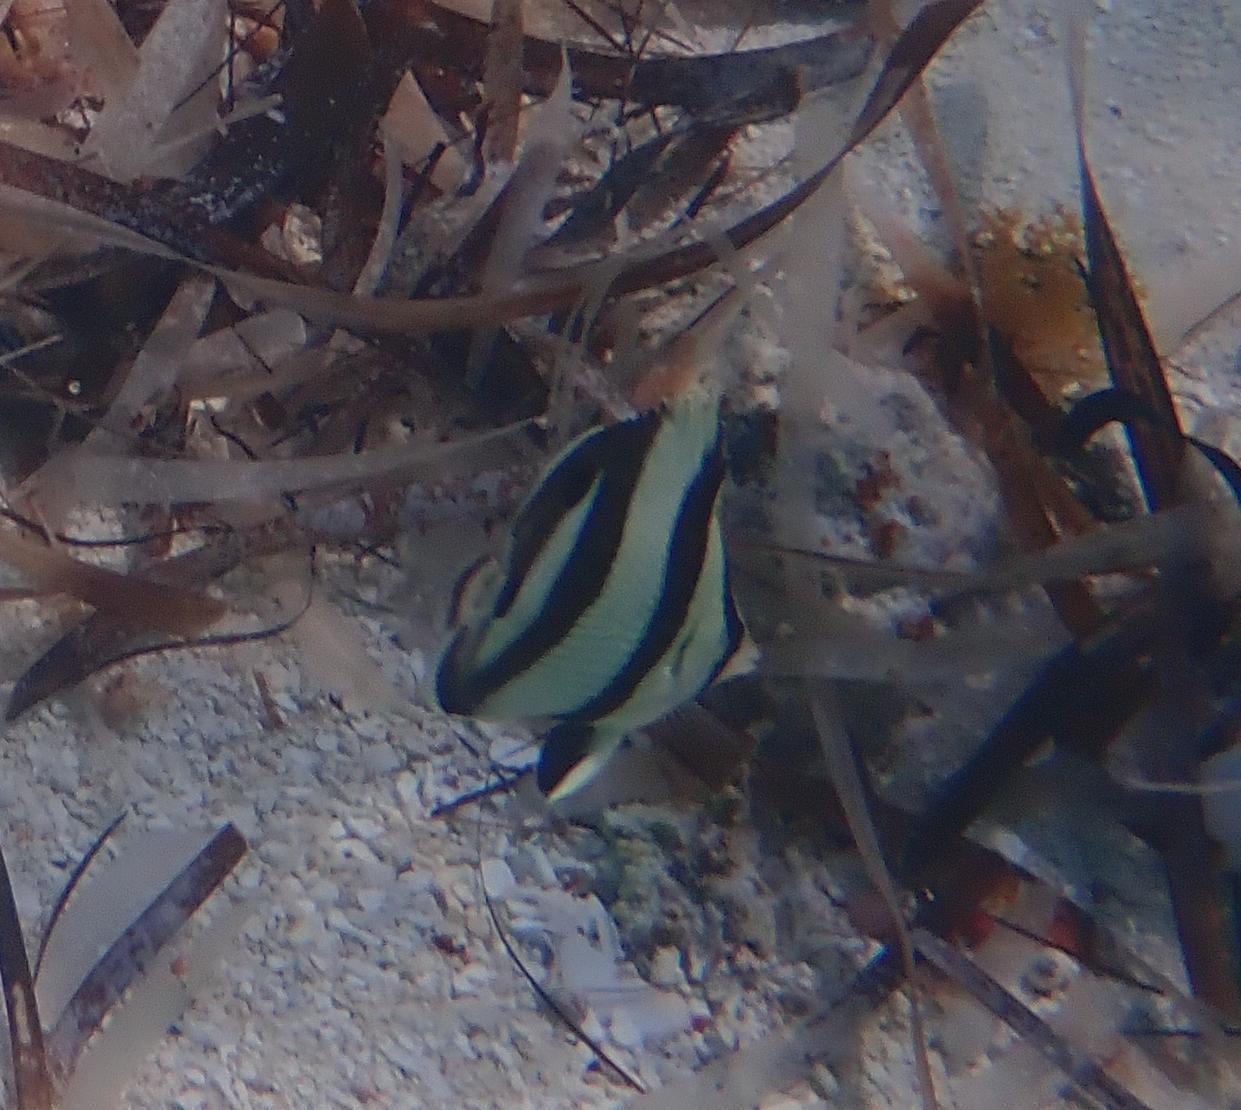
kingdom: Animalia
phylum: Chordata
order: Perciformes
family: Chaetodontidae
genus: Chaetodon
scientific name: Chaetodon striatus
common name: Banded butterflyfish
